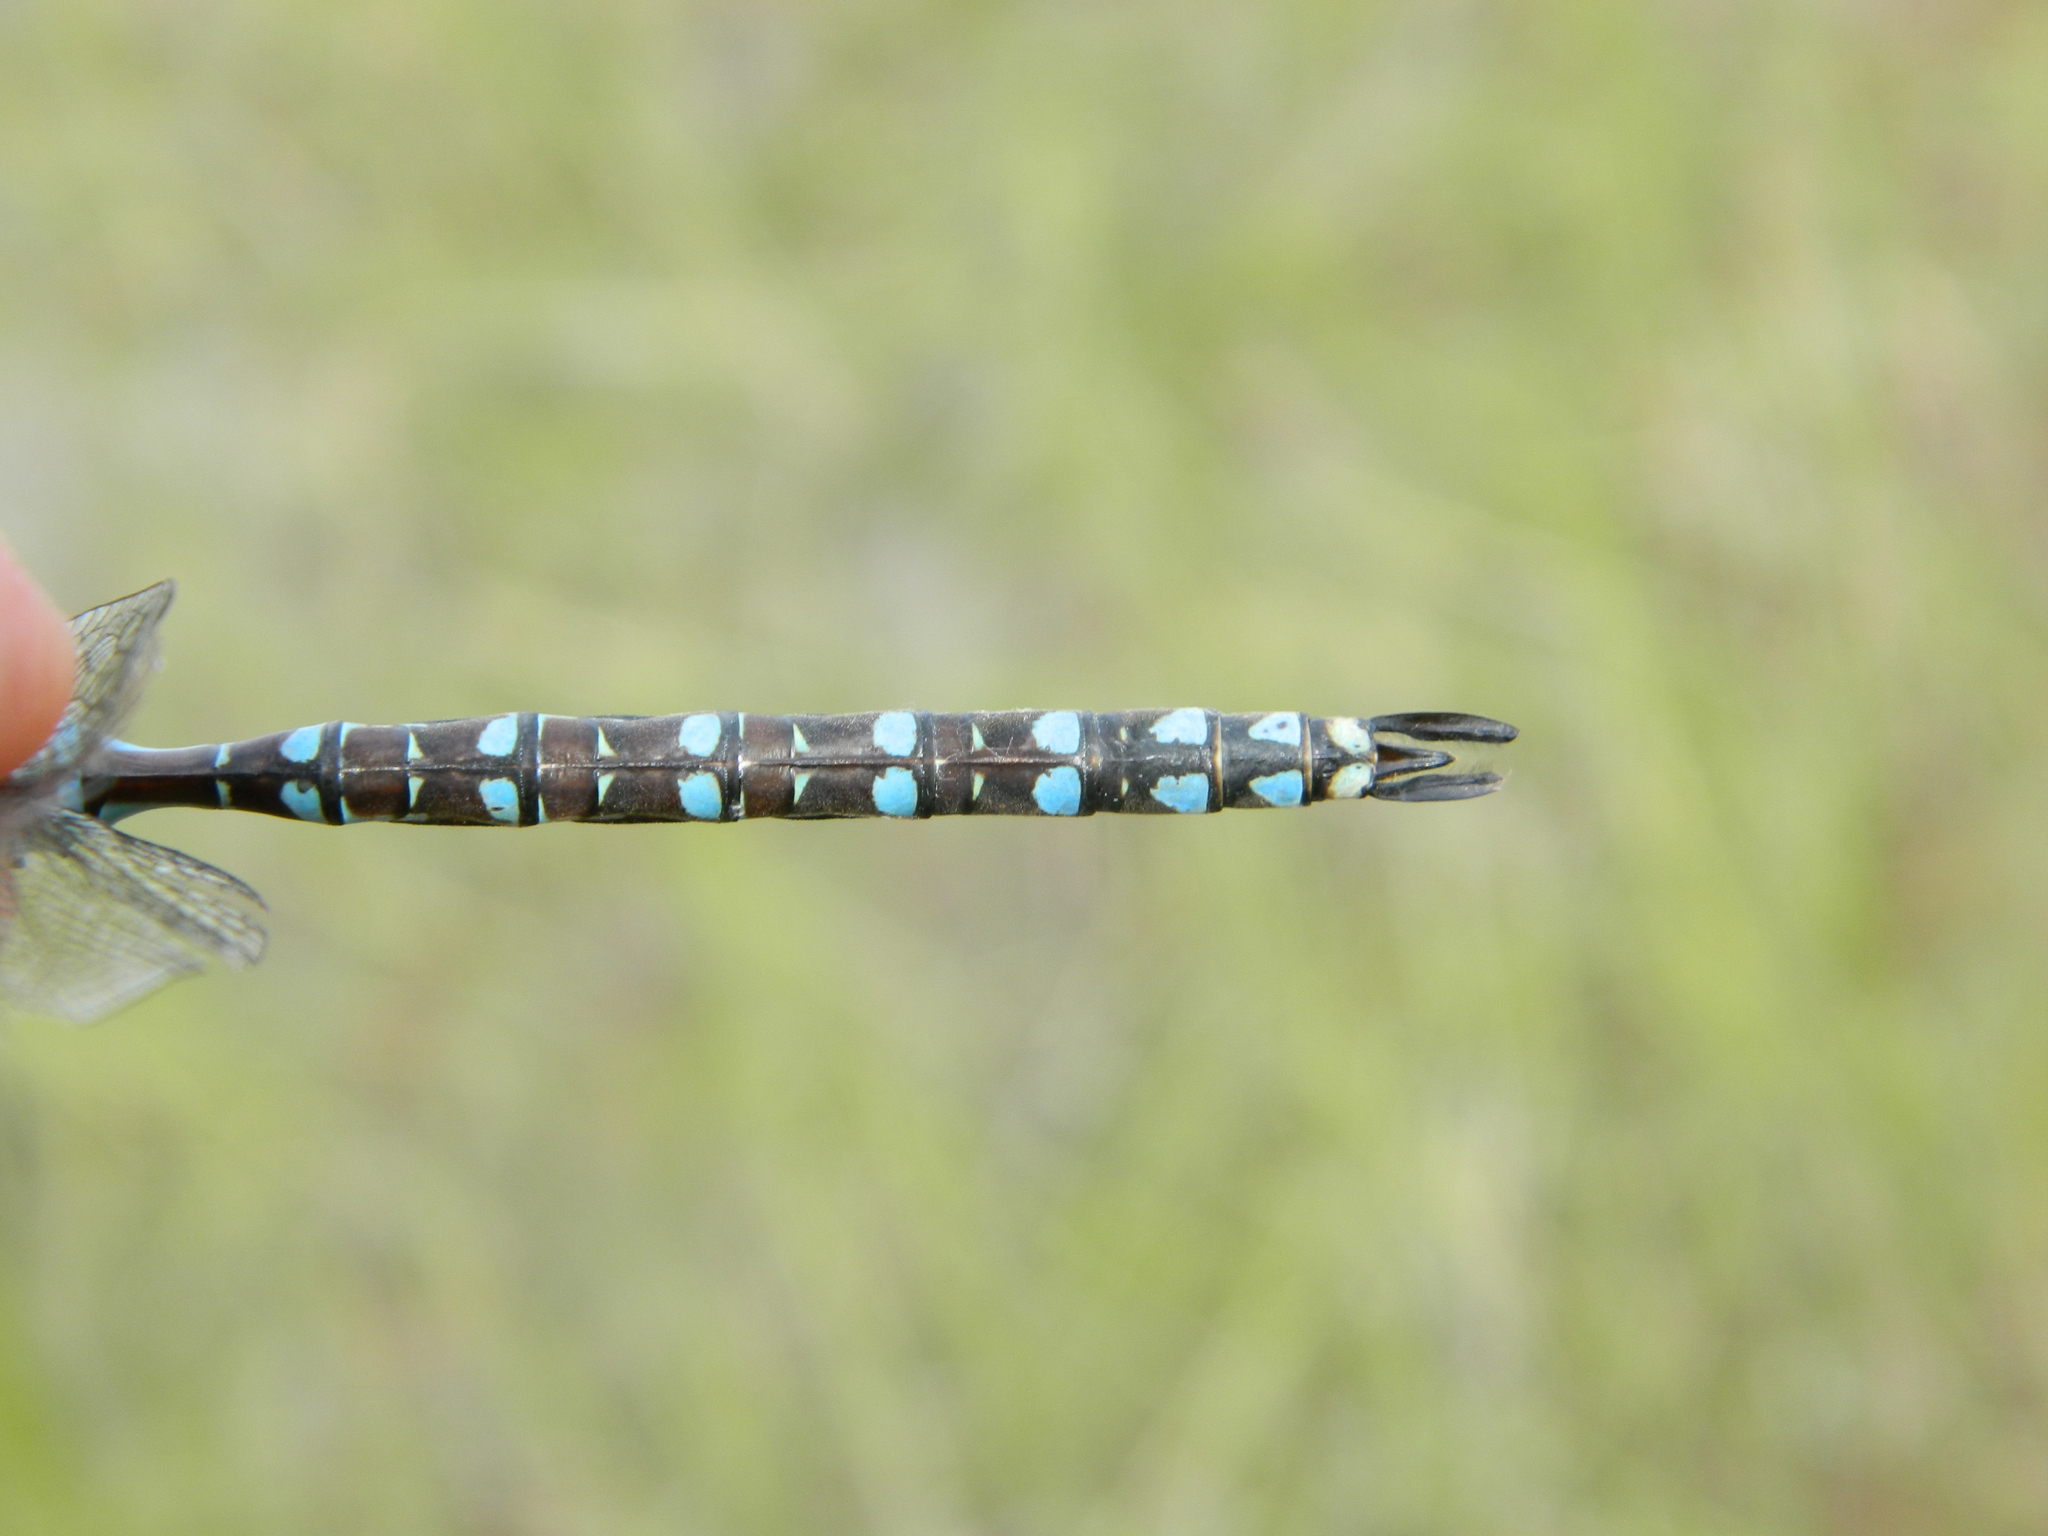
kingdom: Animalia
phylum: Arthropoda
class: Insecta
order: Odonata
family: Aeshnidae
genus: Aeshna
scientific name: Aeshna canadensis
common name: Canada darner
